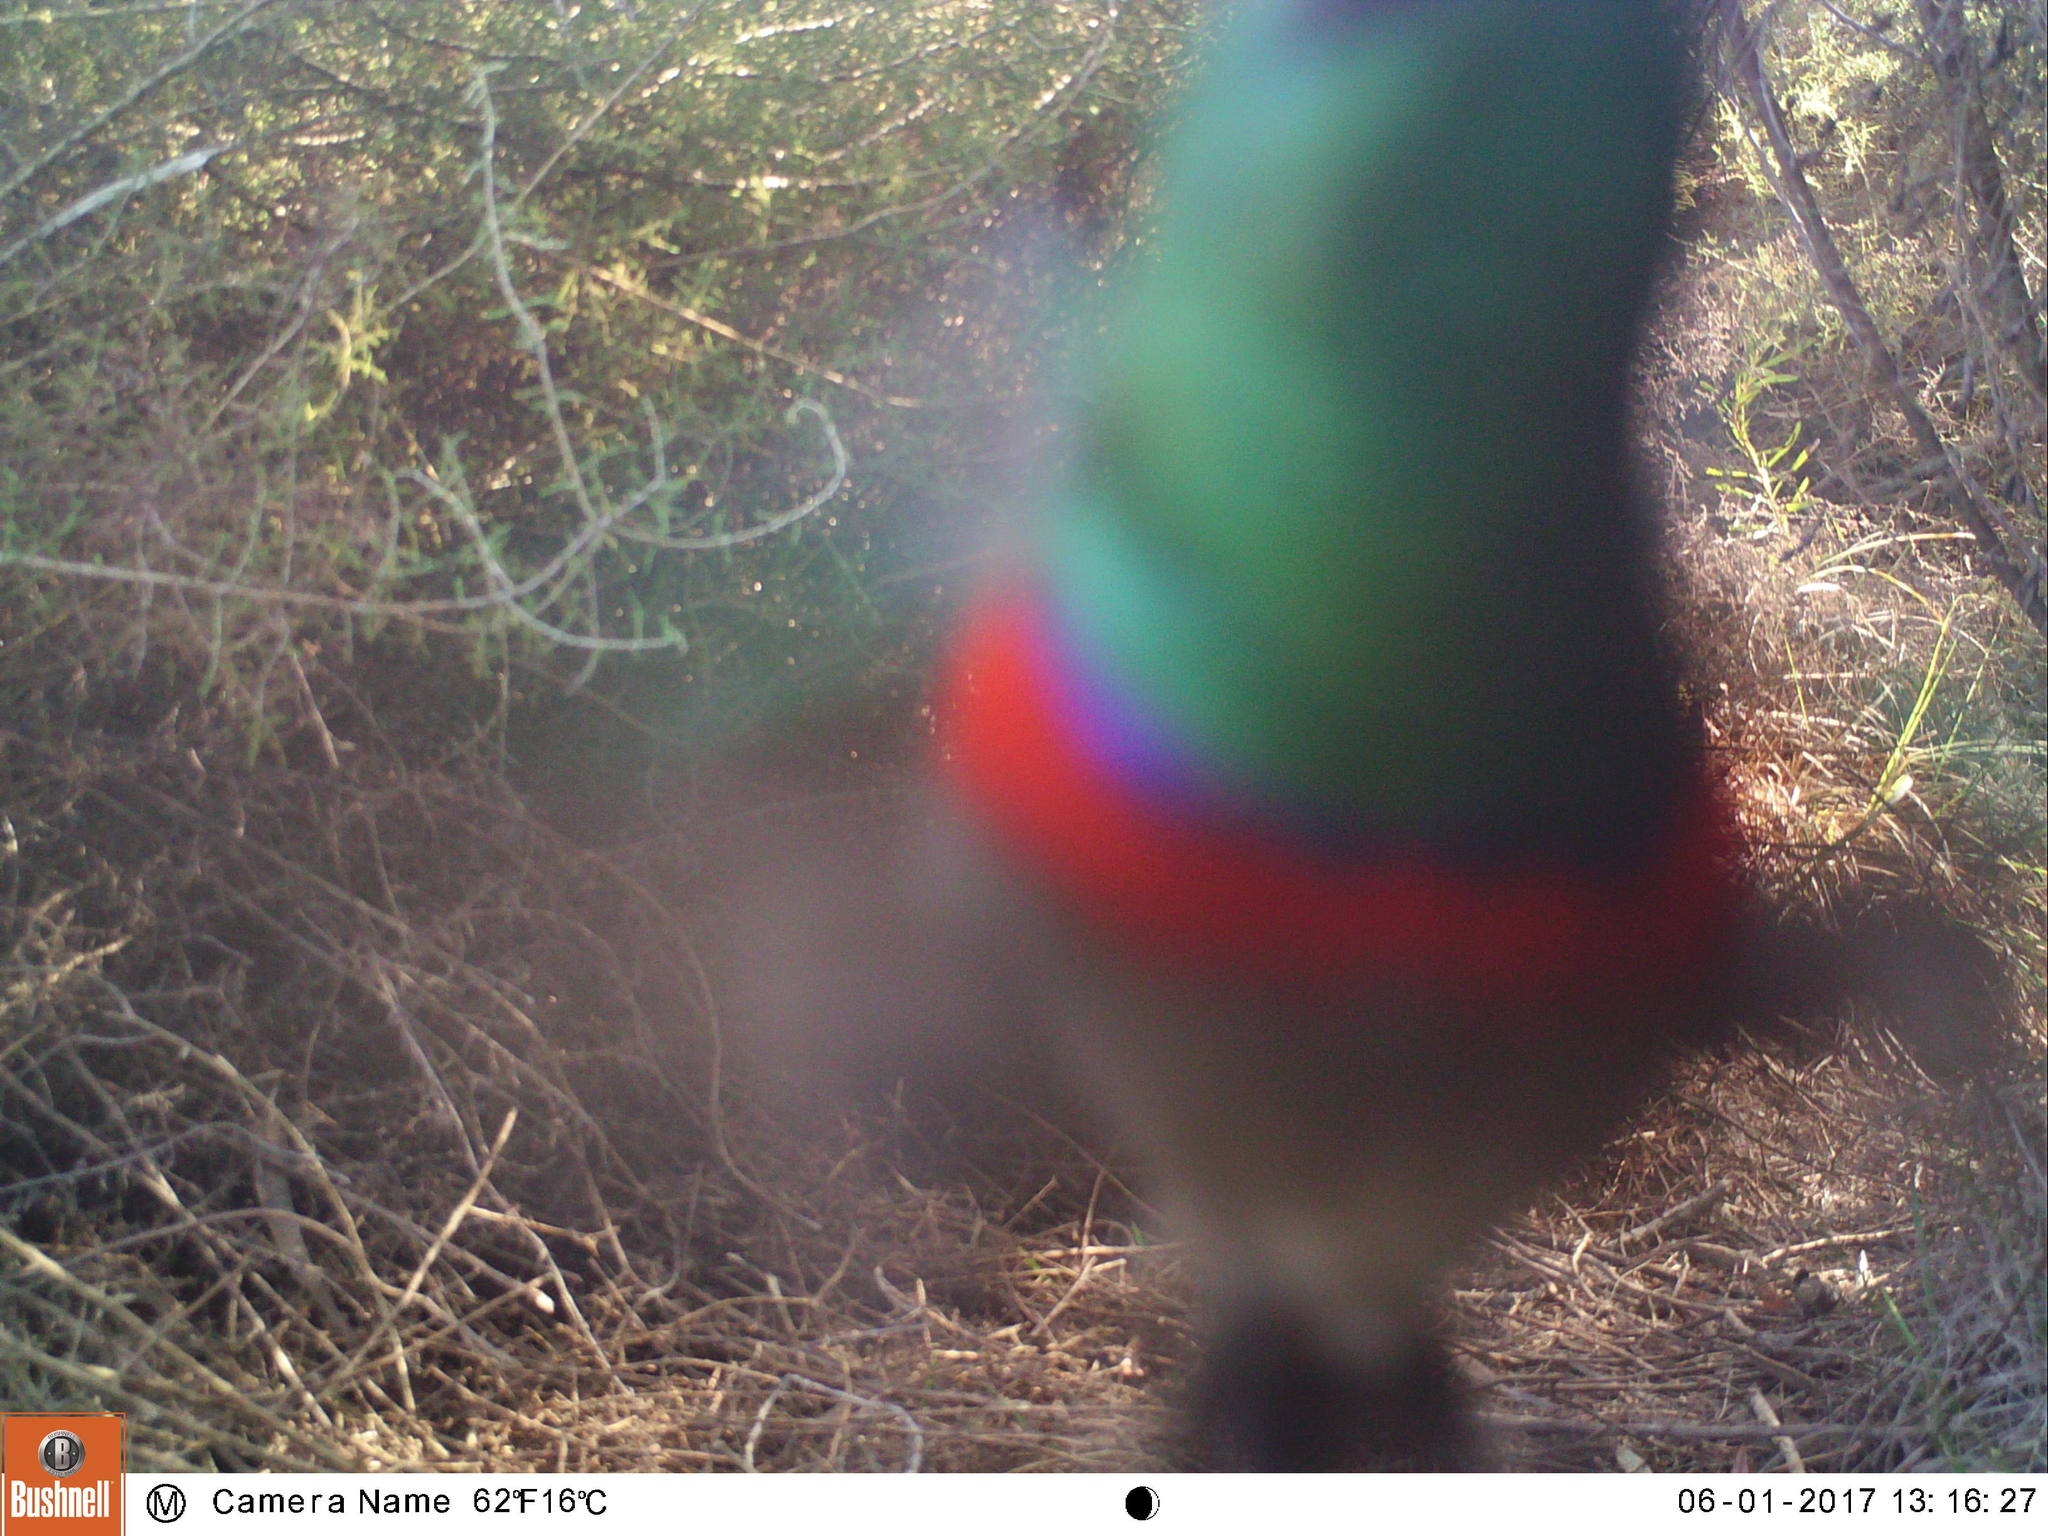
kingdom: Animalia
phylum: Chordata
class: Aves
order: Passeriformes
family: Nectariniidae
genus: Cinnyris
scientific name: Cinnyris chalybeus
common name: Southern double-collared sunbird
